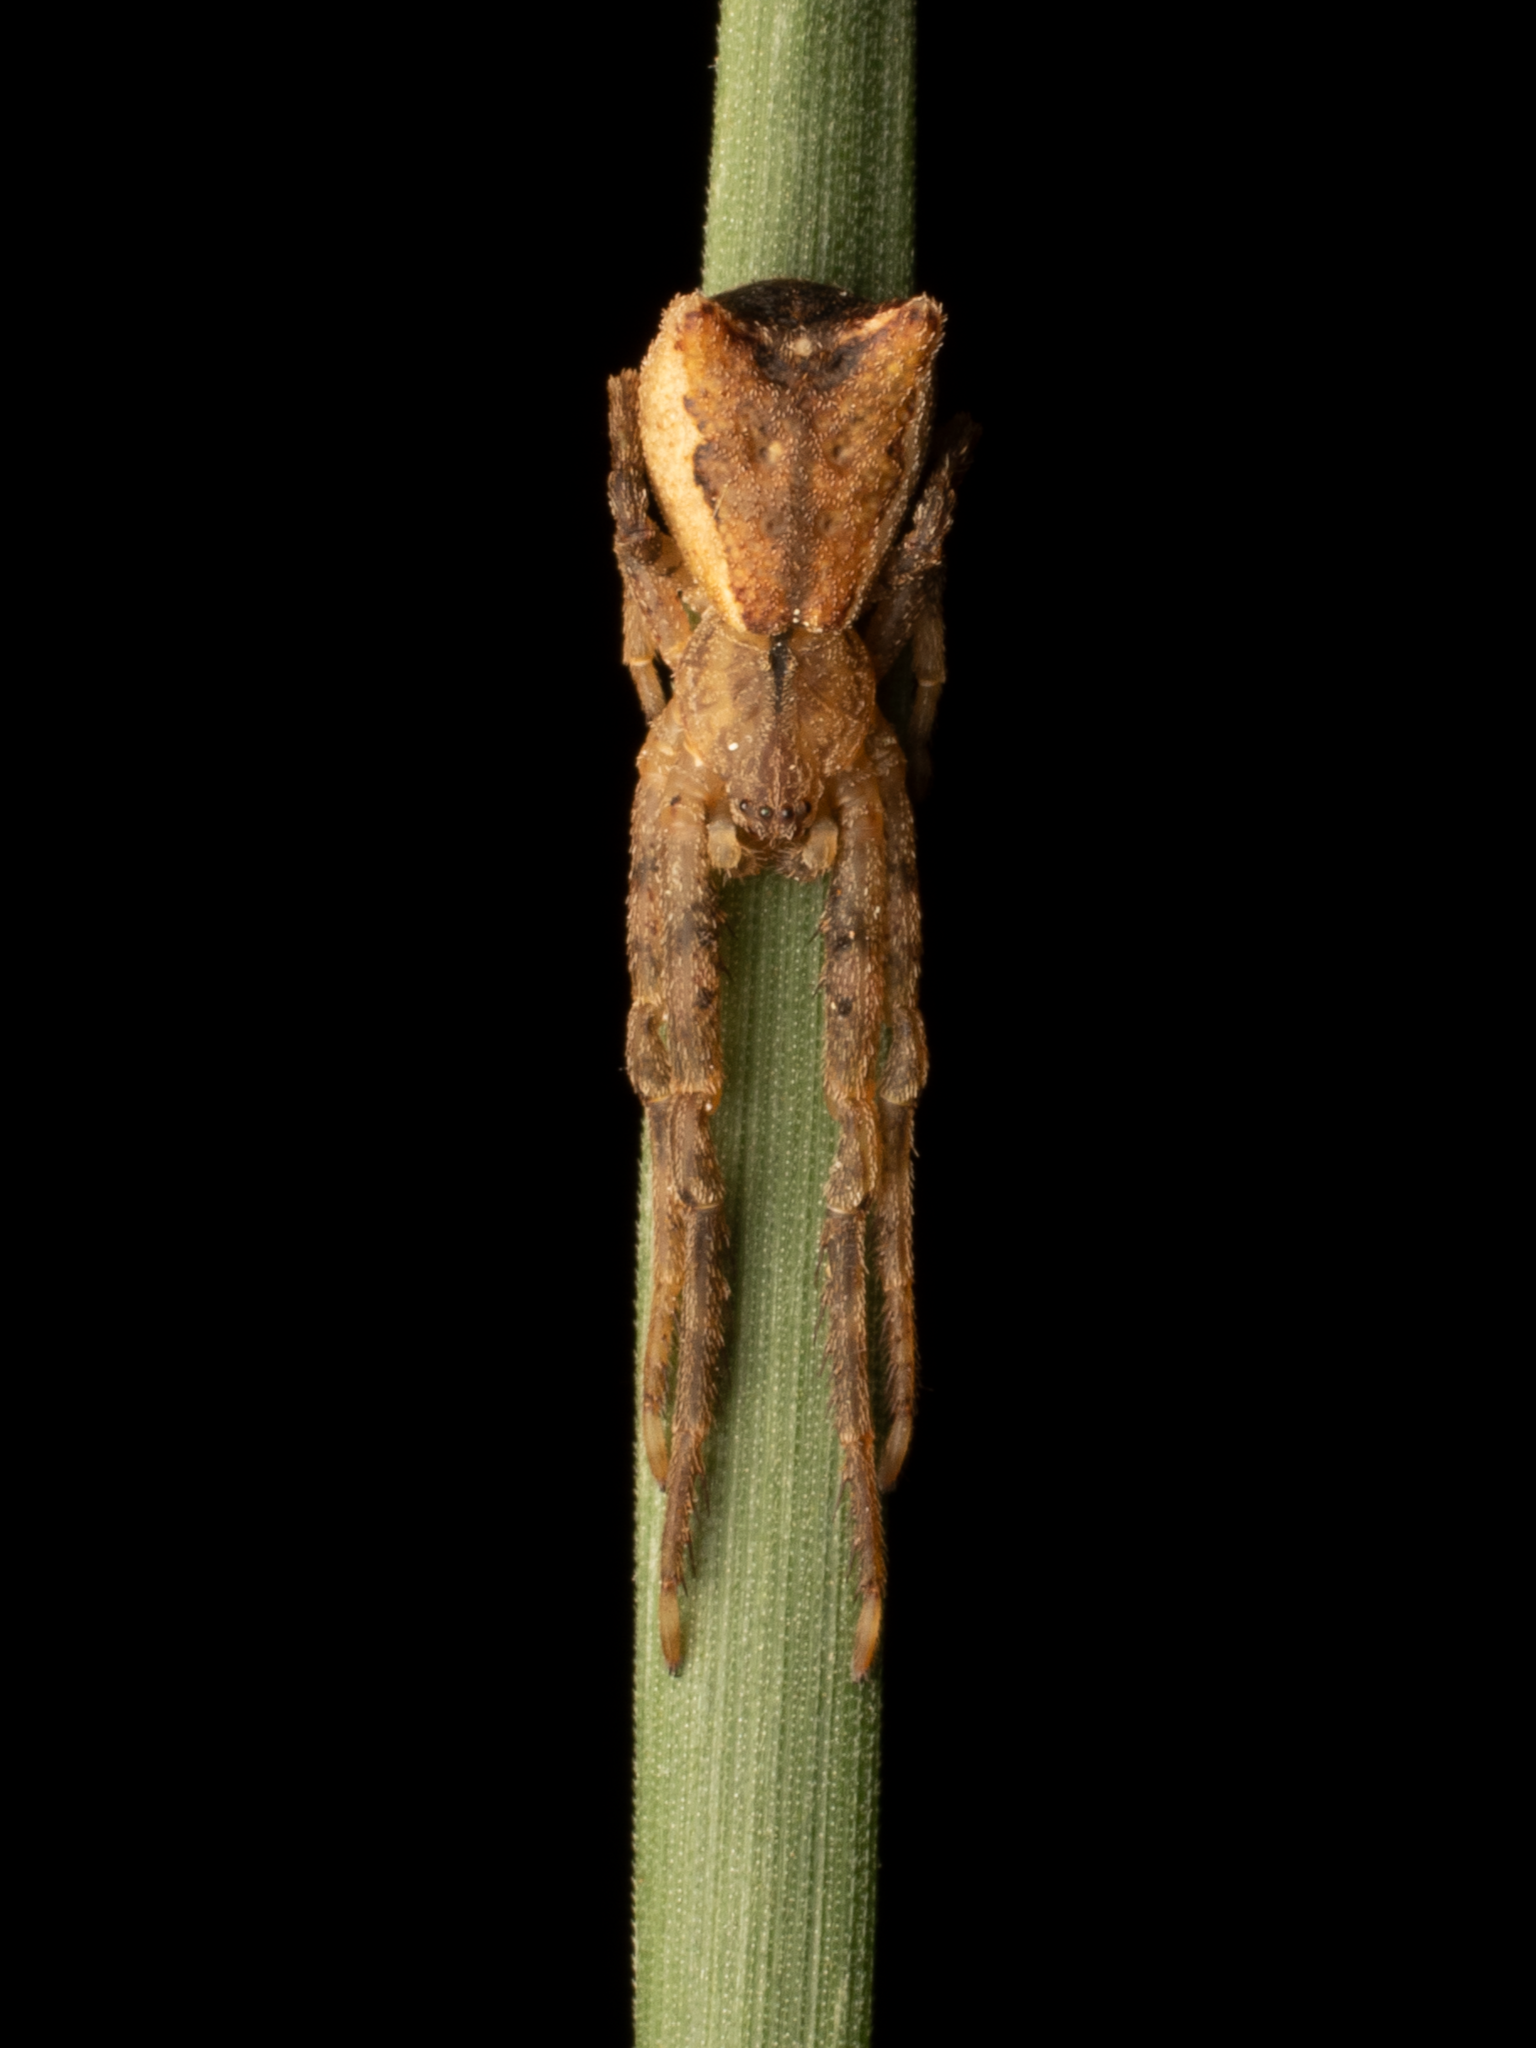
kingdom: Animalia
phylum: Arthropoda
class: Arachnida
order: Araneae
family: Thomisidae
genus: Sidymella
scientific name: Sidymella angularis
